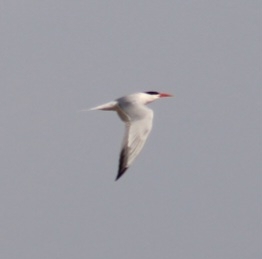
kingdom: Animalia
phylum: Chordata
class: Aves
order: Charadriiformes
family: Laridae
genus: Thalasseus
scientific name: Thalasseus elegans
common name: Elegant tern
